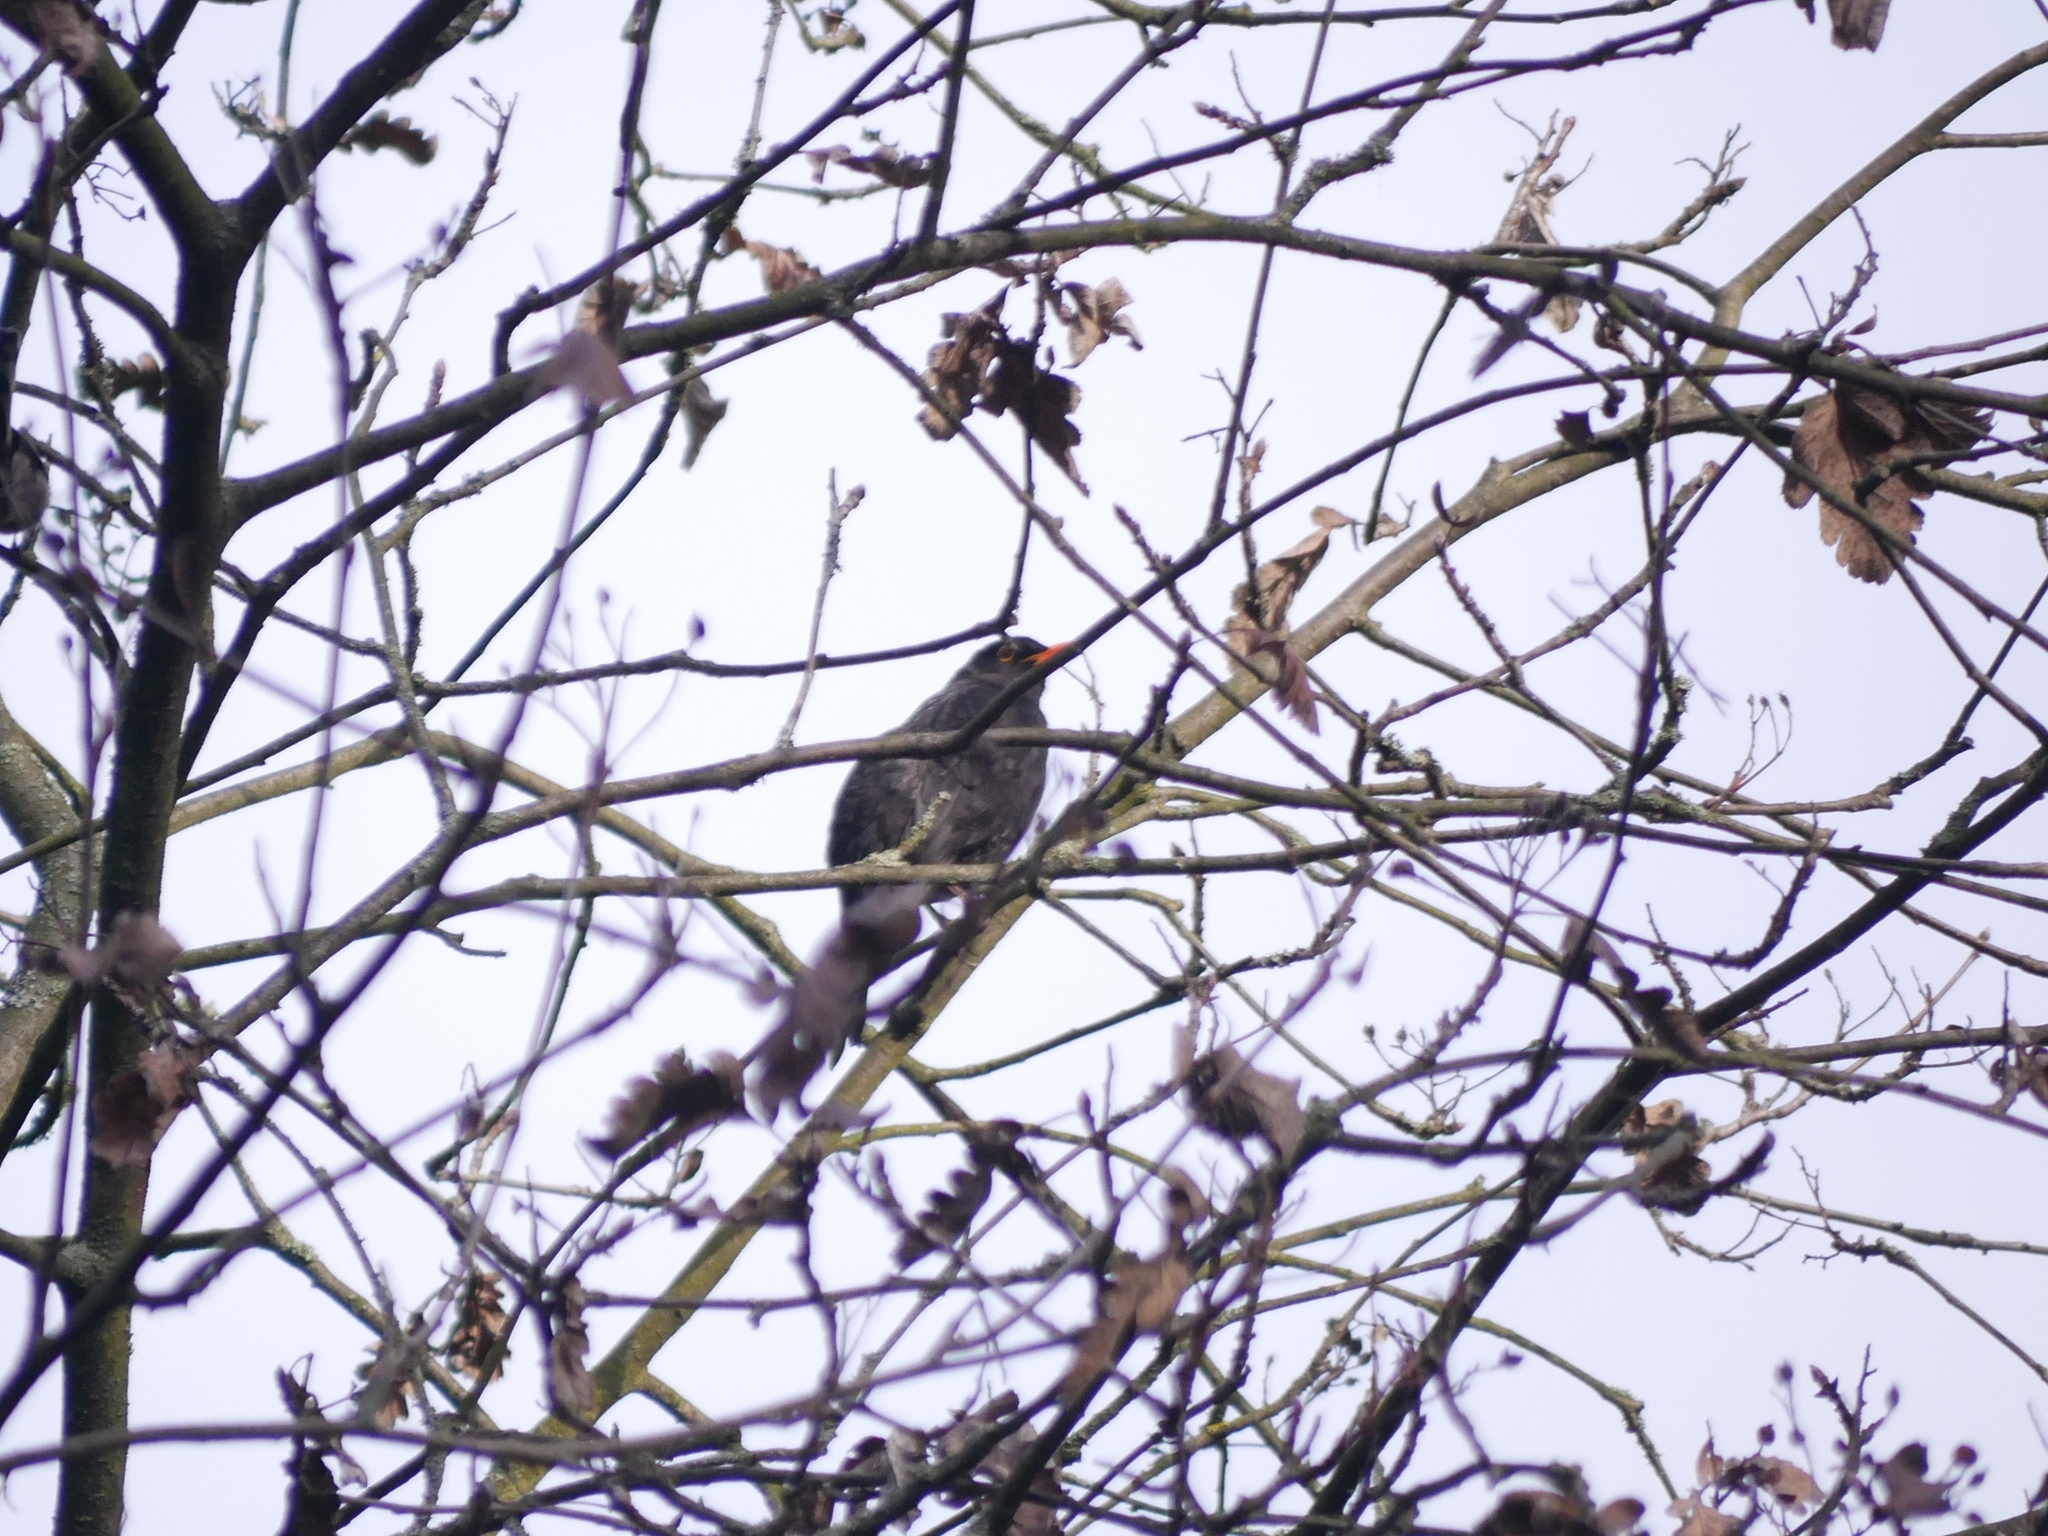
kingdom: Animalia
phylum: Chordata
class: Aves
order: Passeriformes
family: Turdidae
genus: Turdus
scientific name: Turdus merula
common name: Common blackbird
